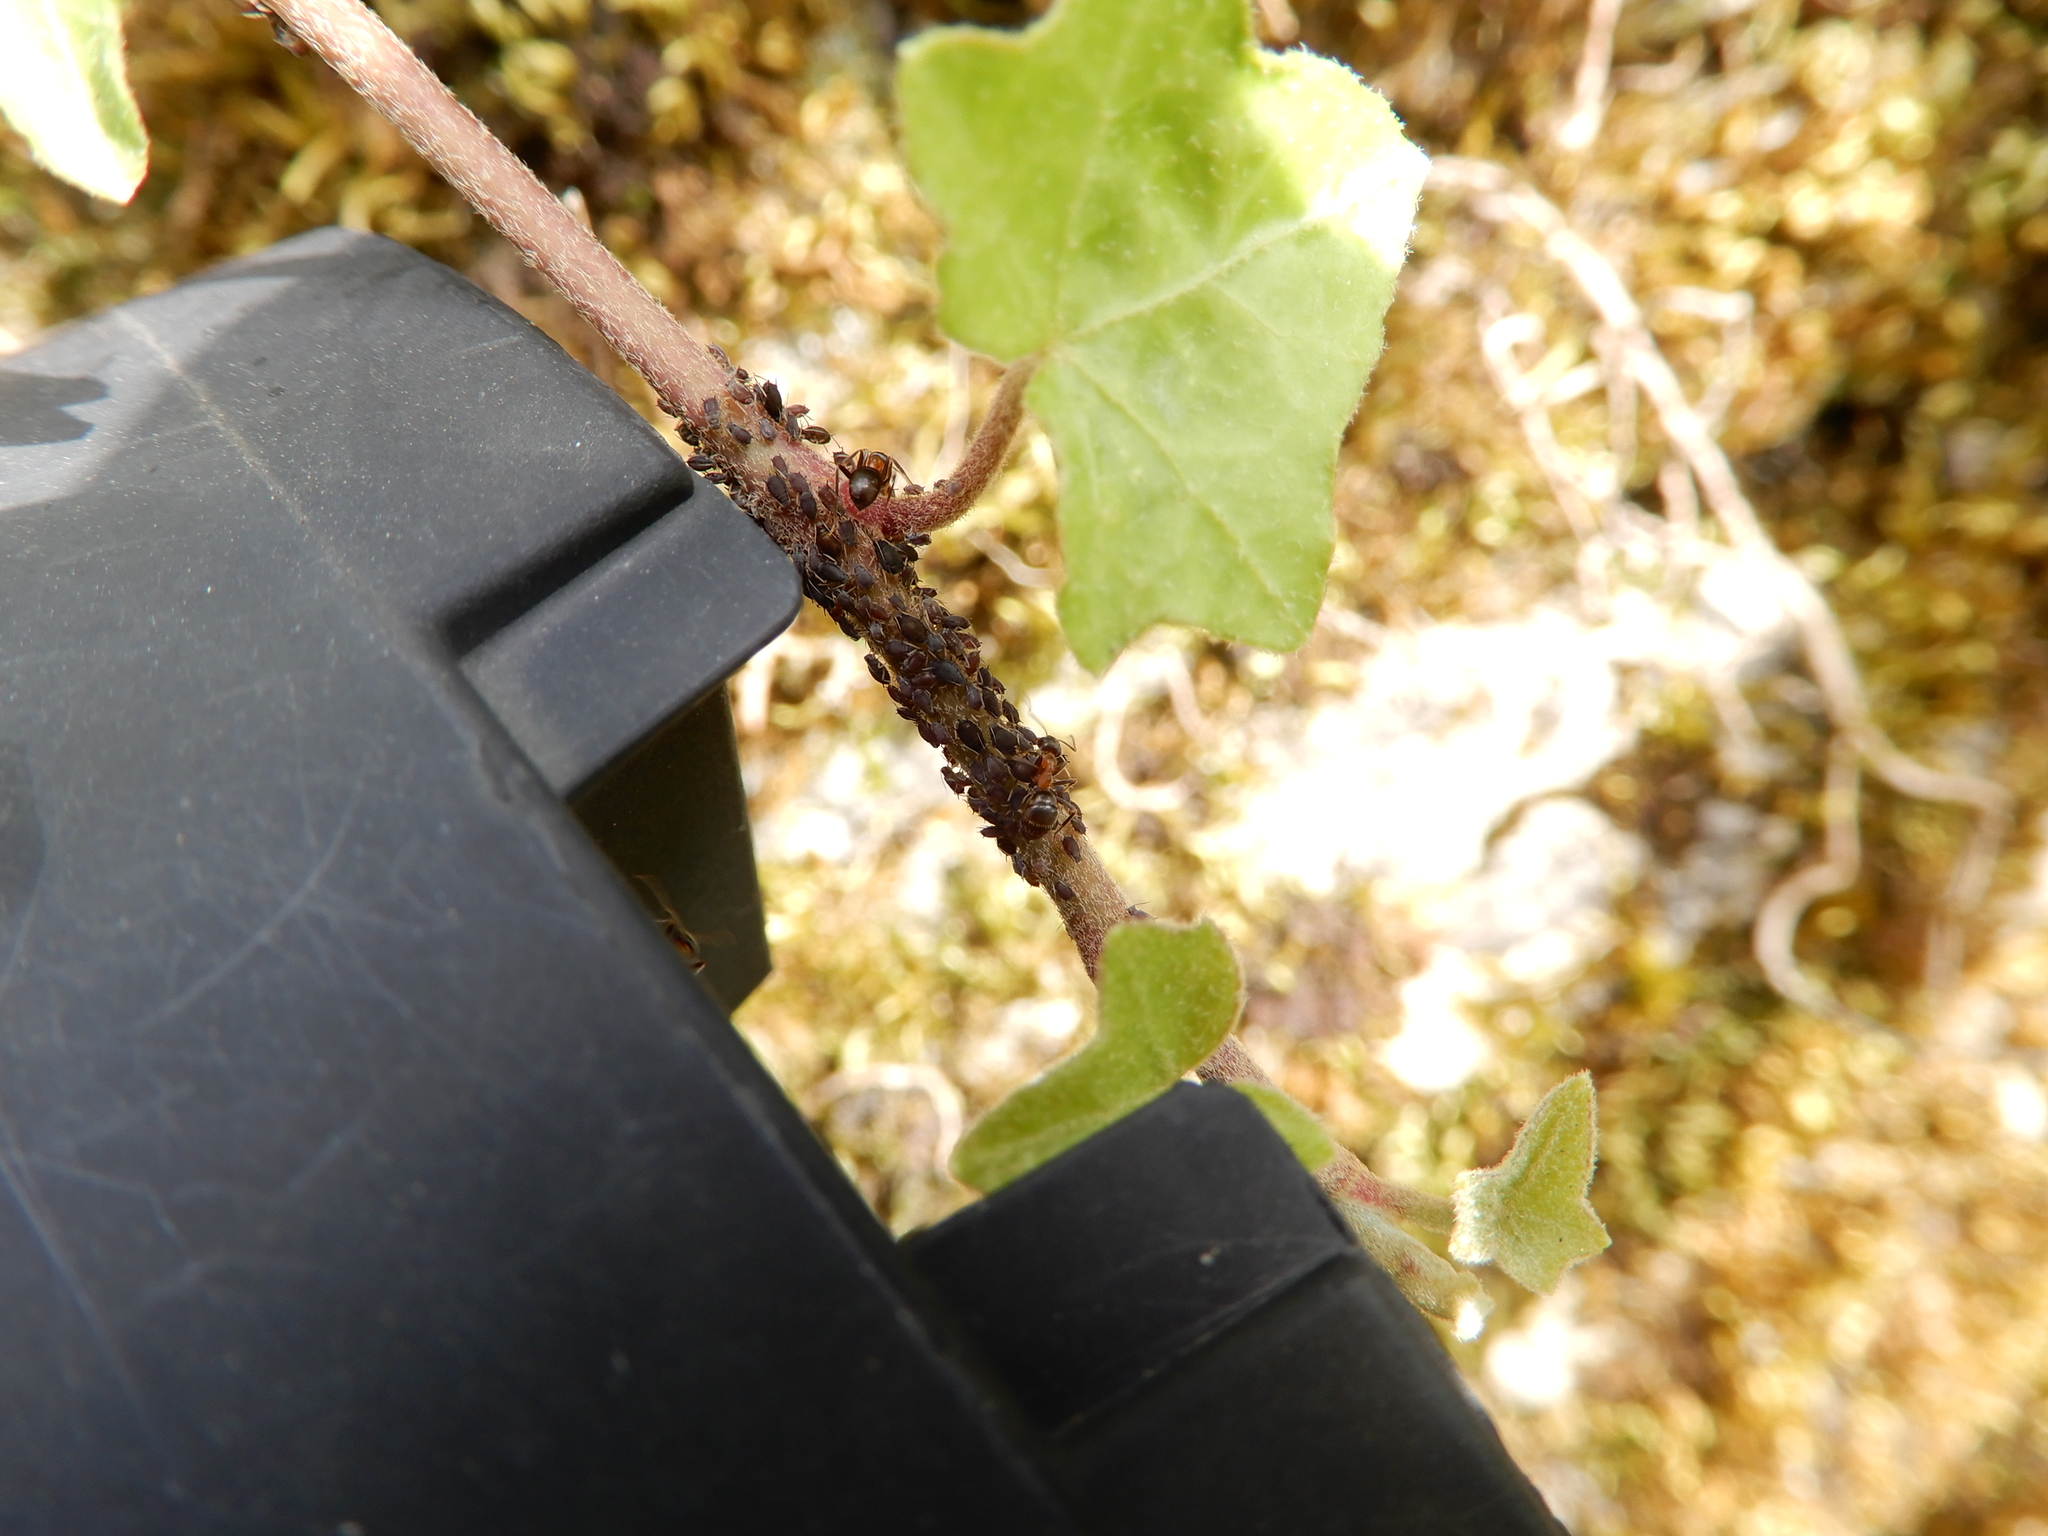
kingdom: Animalia
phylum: Arthropoda
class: Insecta
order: Hymenoptera
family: Formicidae
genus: Lasius
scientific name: Lasius emarginatus
